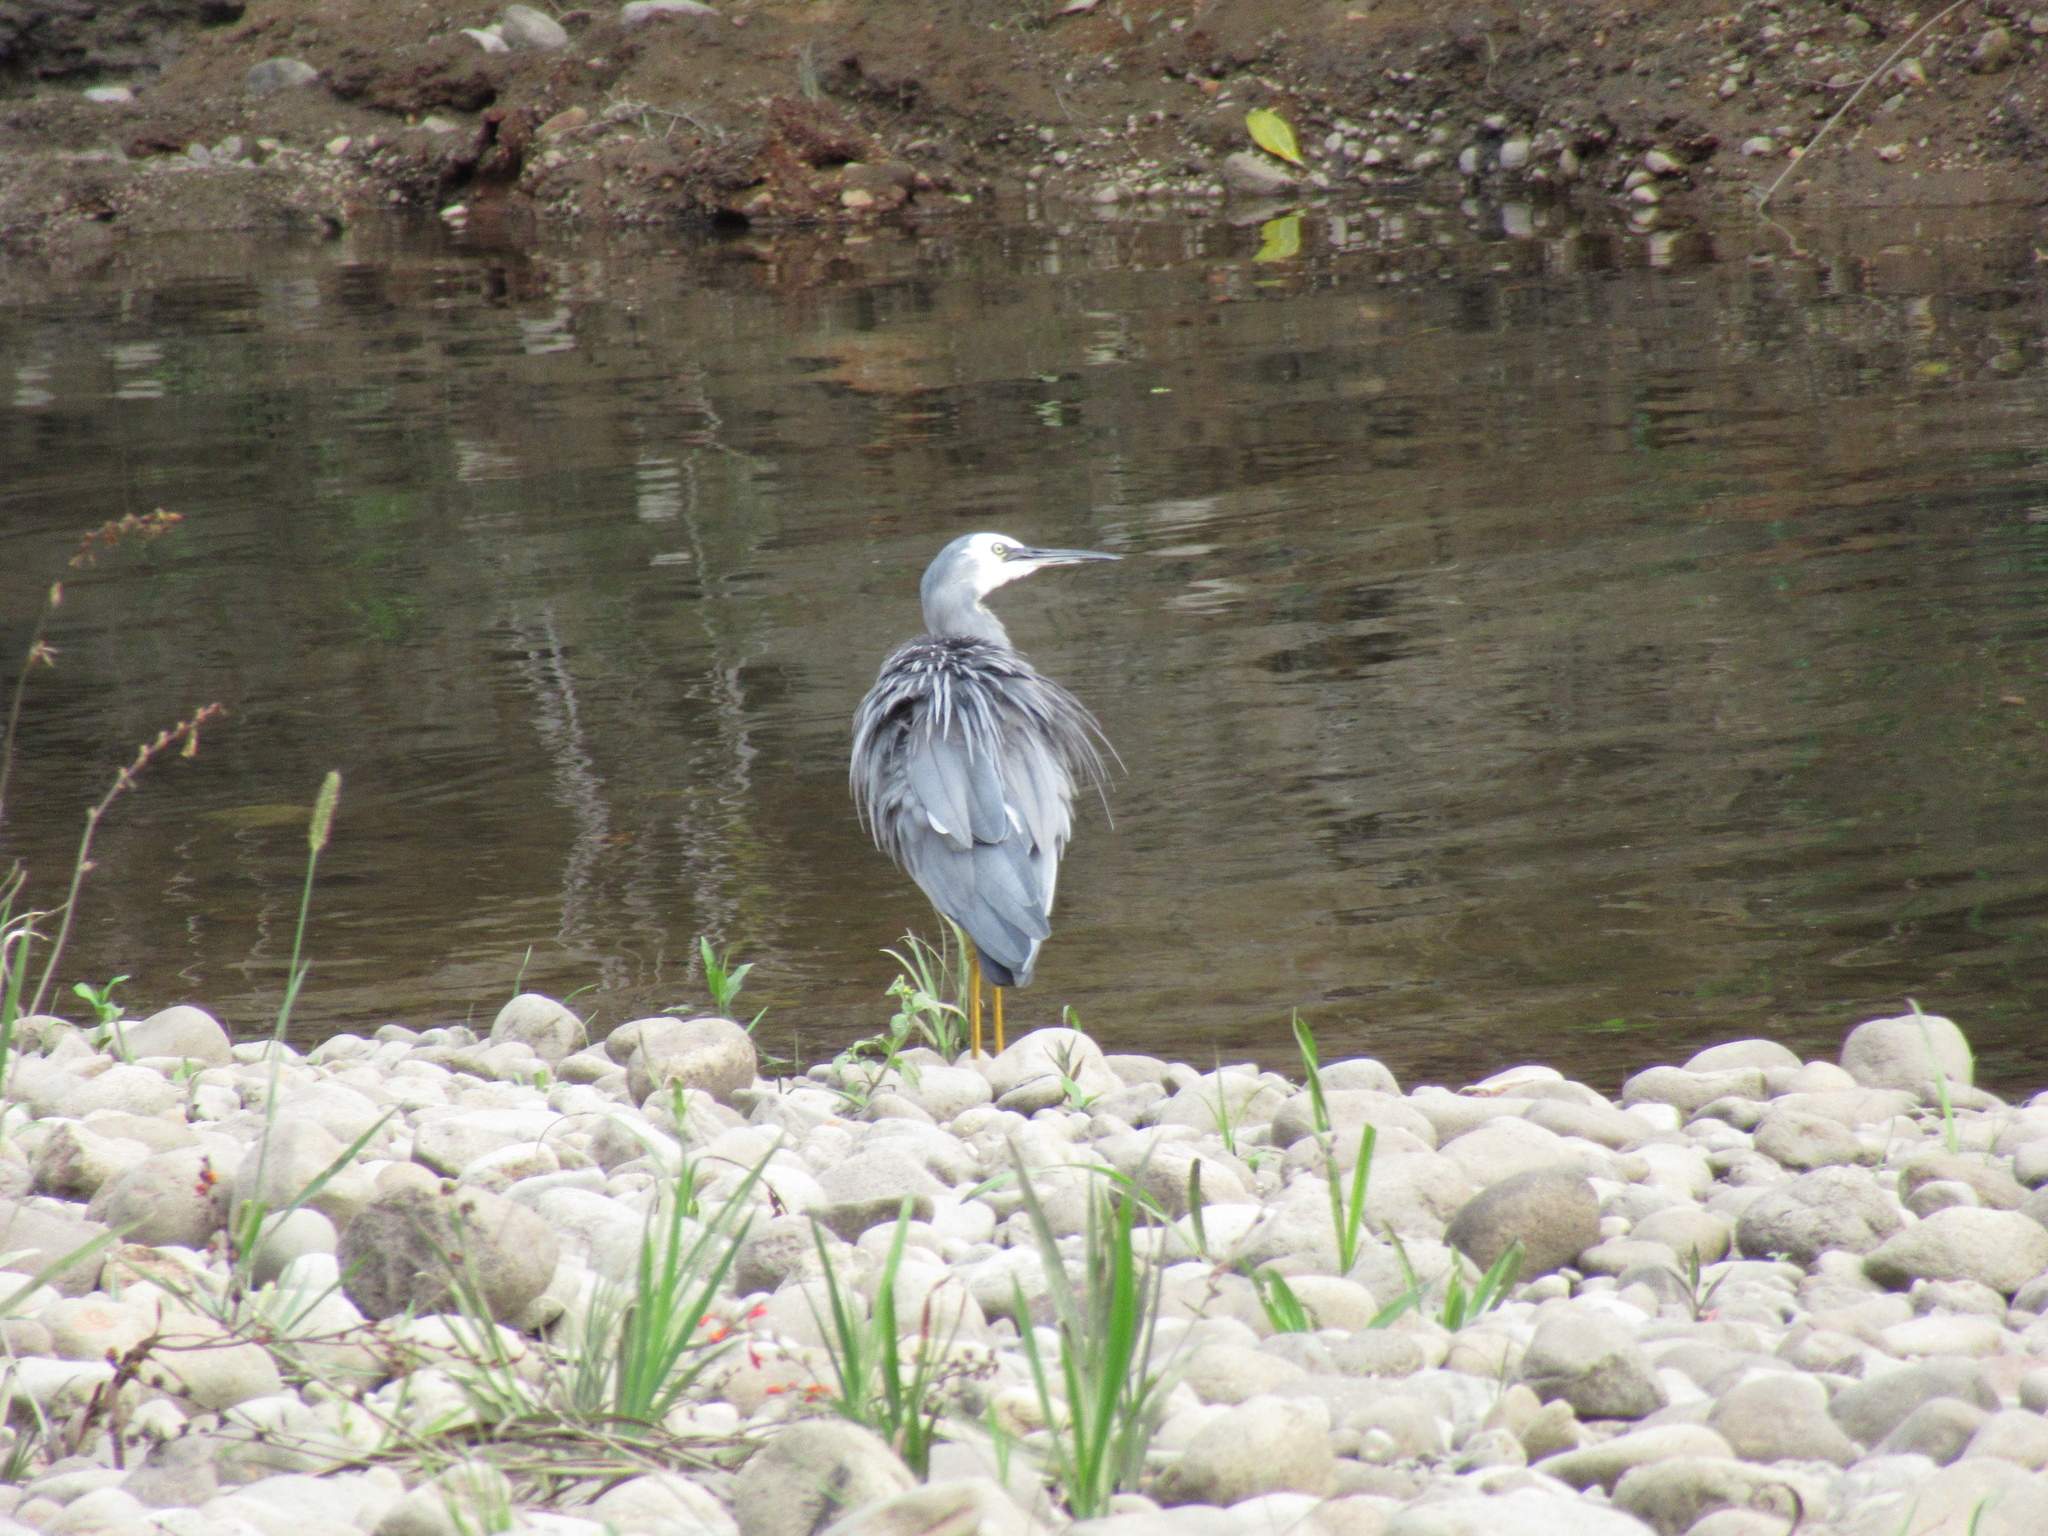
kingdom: Animalia
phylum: Chordata
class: Aves
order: Pelecaniformes
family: Ardeidae
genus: Egretta
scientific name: Egretta novaehollandiae
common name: White-faced heron
